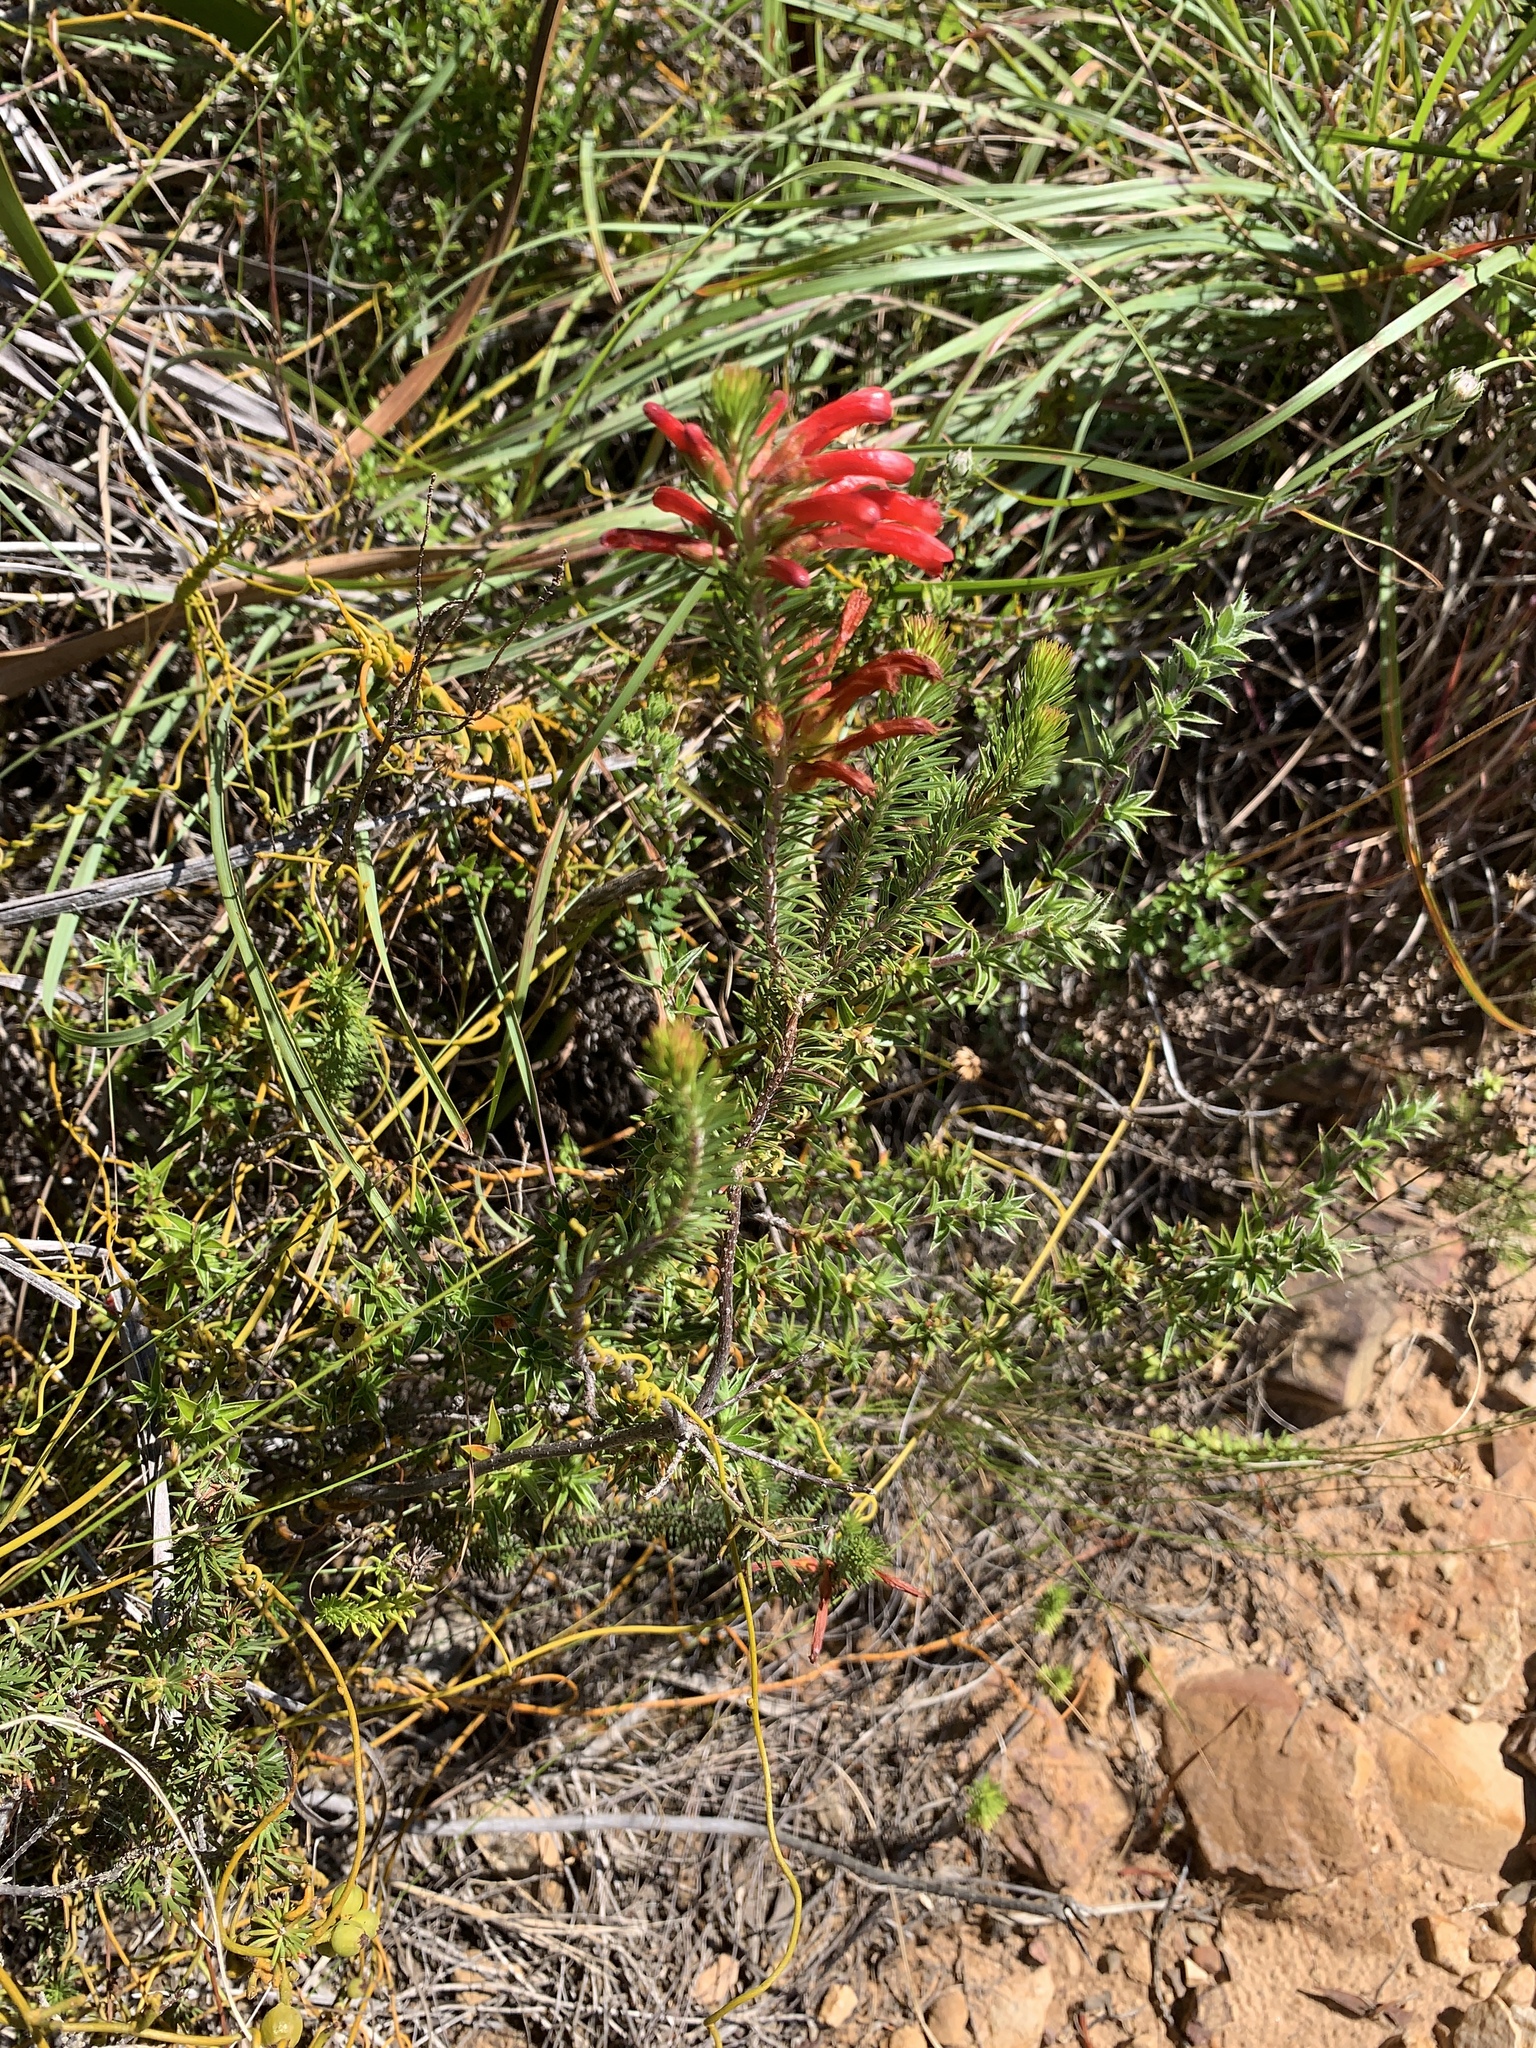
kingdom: Plantae
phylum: Tracheophyta
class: Magnoliopsida
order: Ericales
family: Ericaceae
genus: Erica
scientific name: Erica abietina
